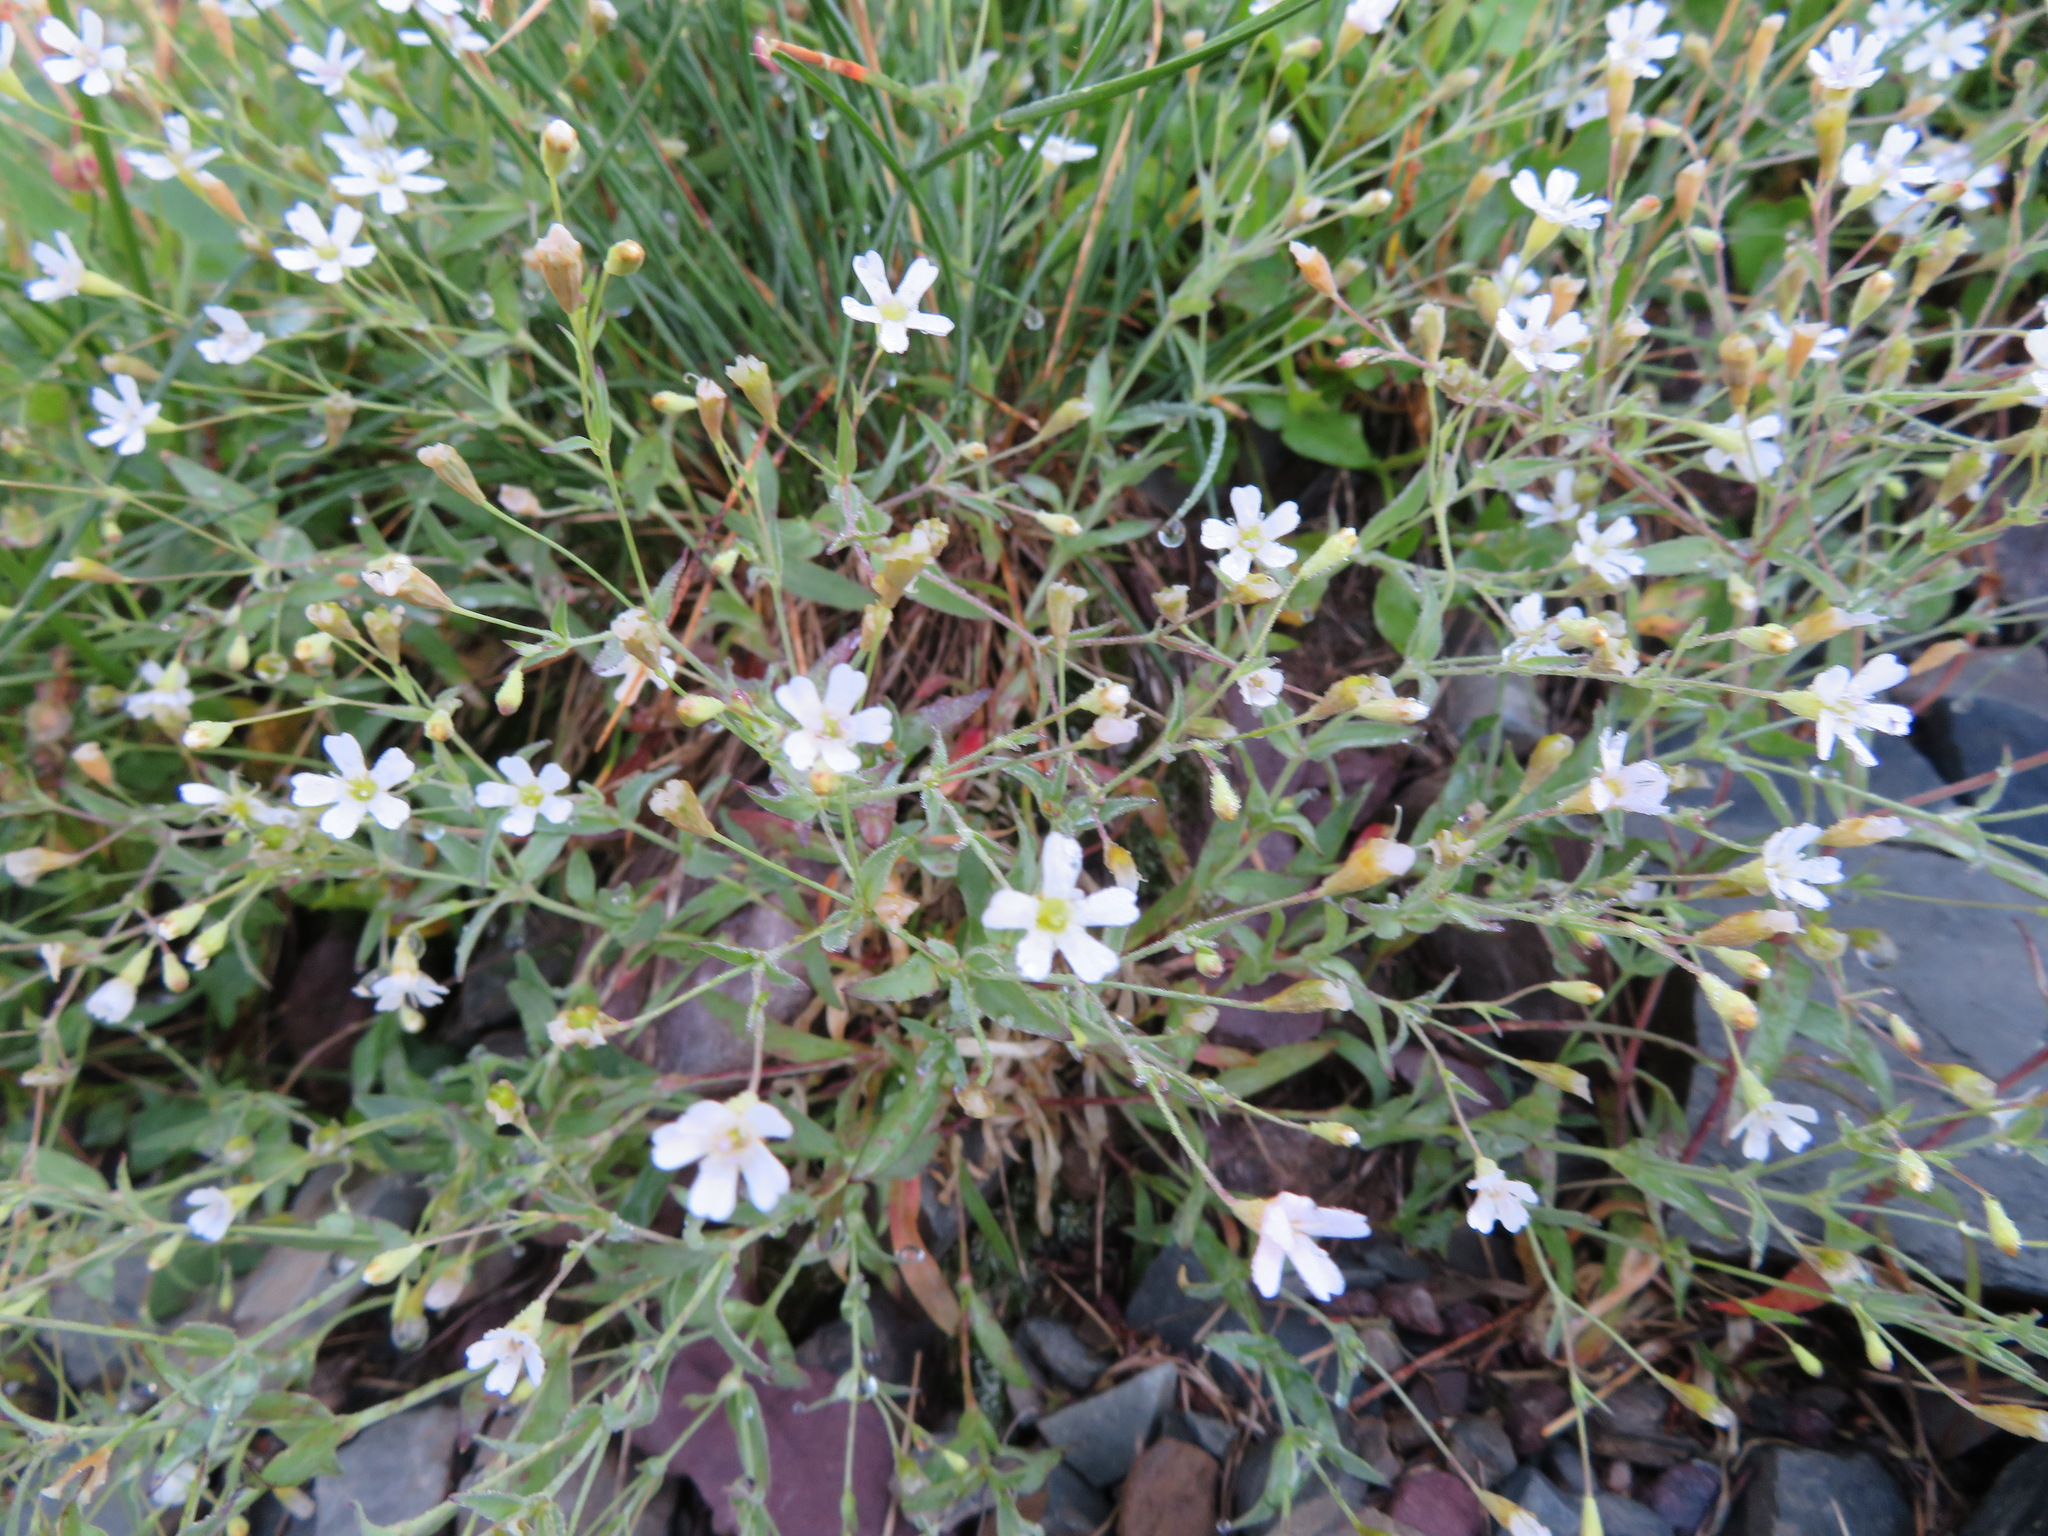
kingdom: Plantae
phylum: Tracheophyta
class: Magnoliopsida
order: Caryophyllales
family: Caryophyllaceae
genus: Atocion
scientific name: Atocion rupestre
